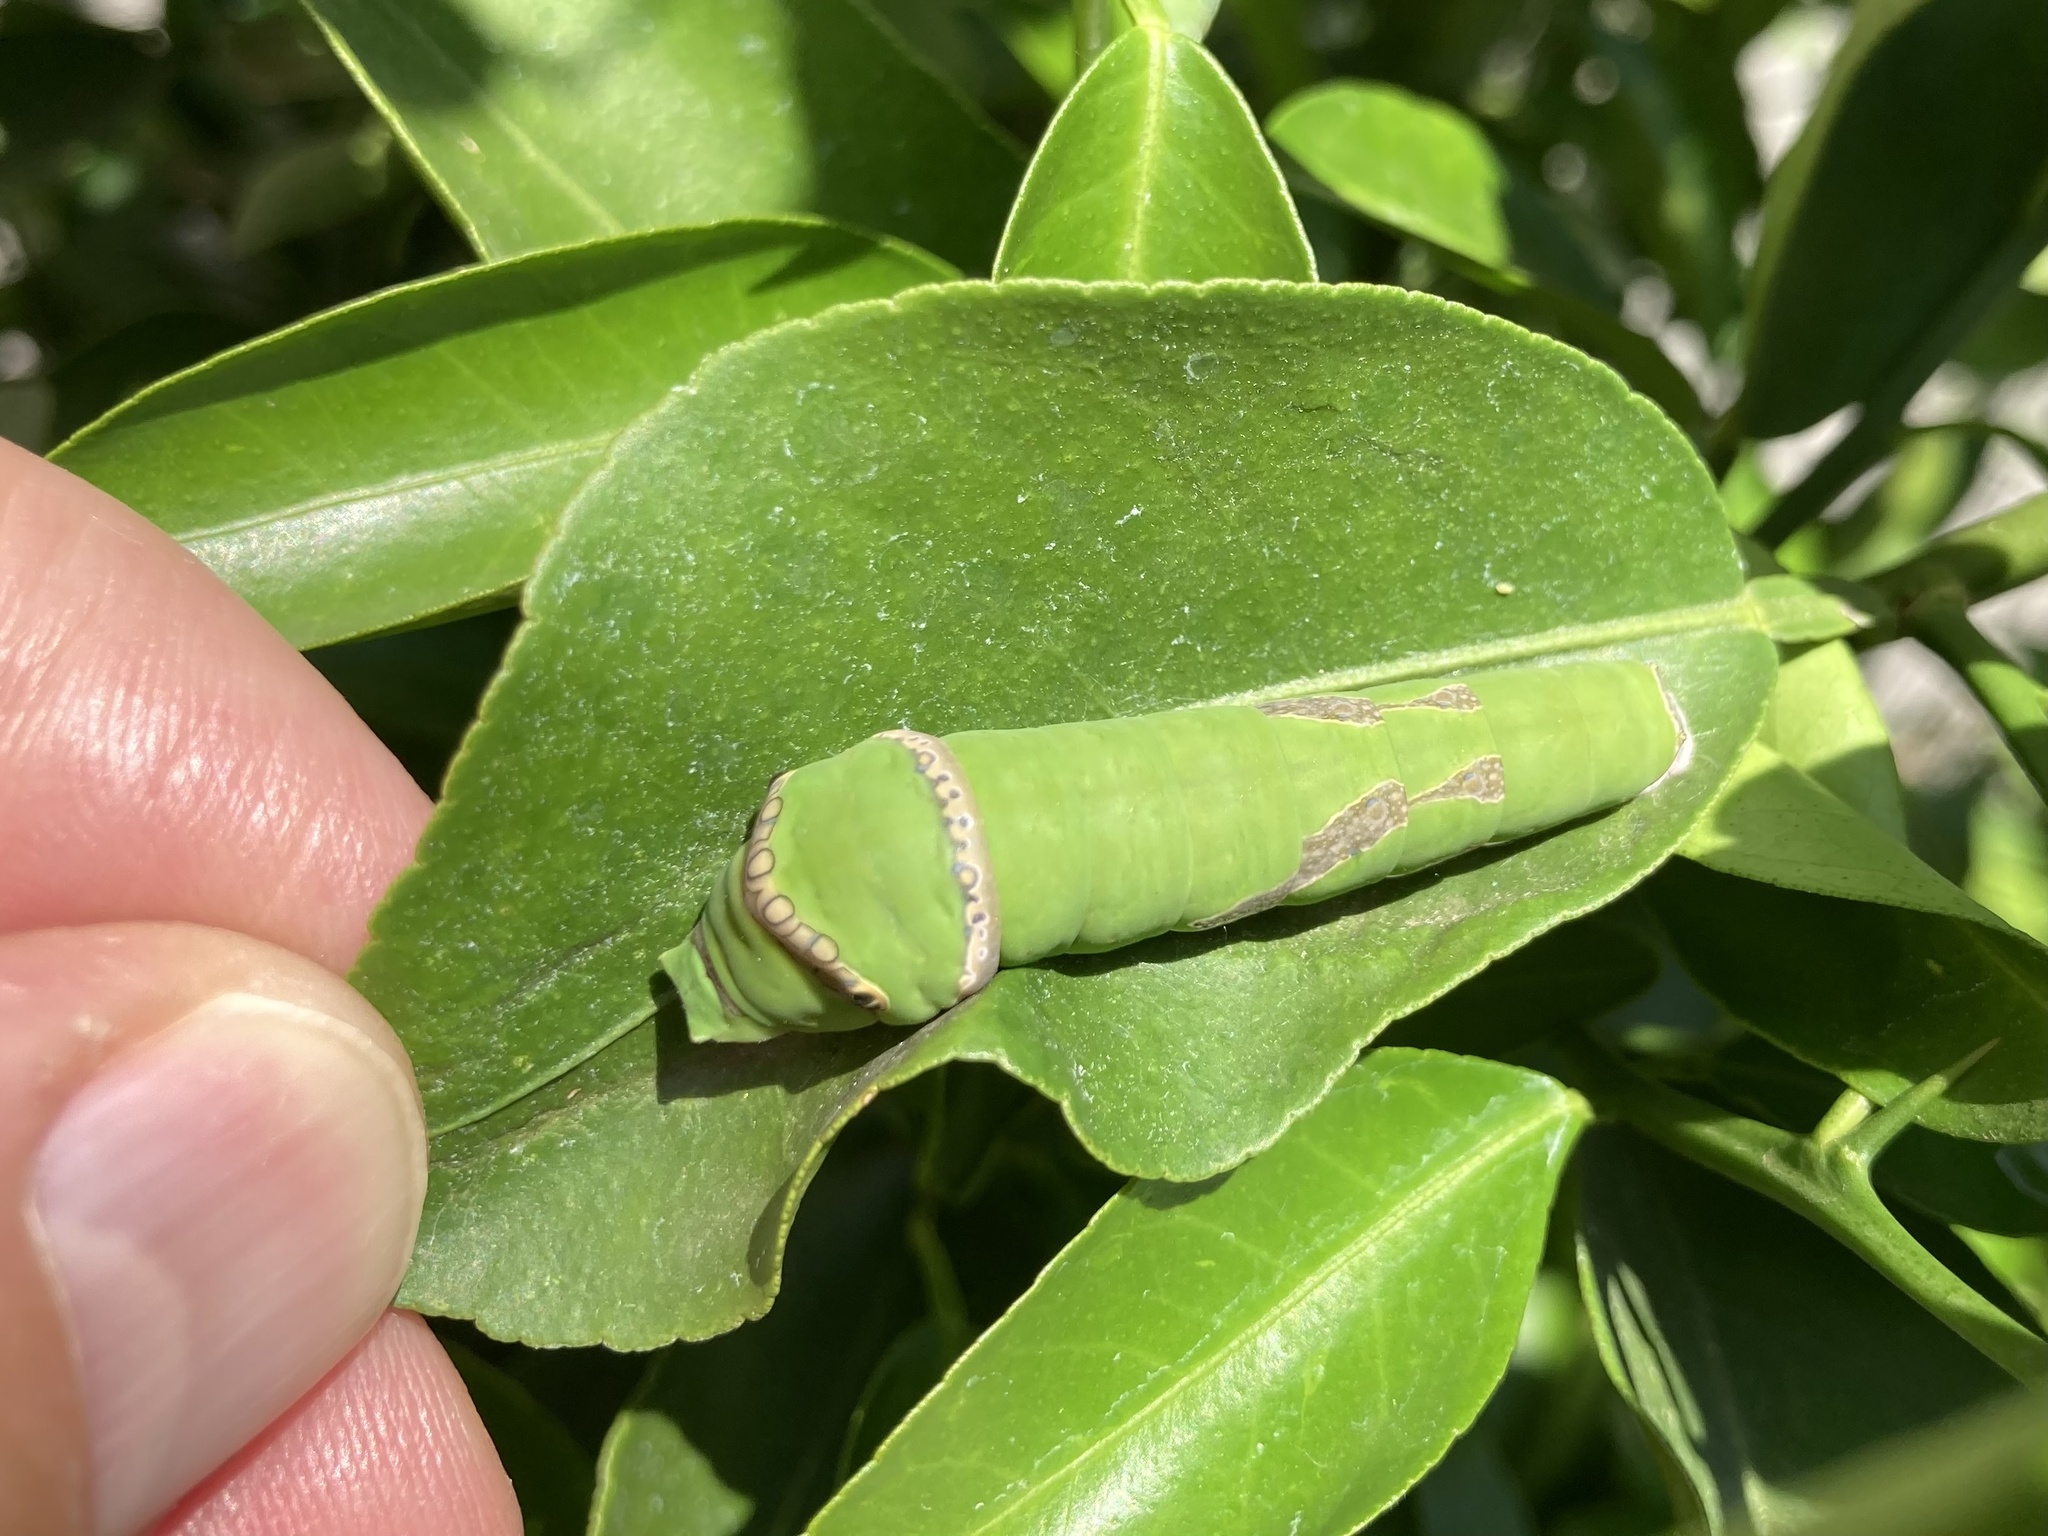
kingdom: Animalia
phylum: Arthropoda
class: Insecta
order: Lepidoptera
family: Papilionidae
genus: Papilio
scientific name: Papilio demodocus
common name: Christmas butterfly
